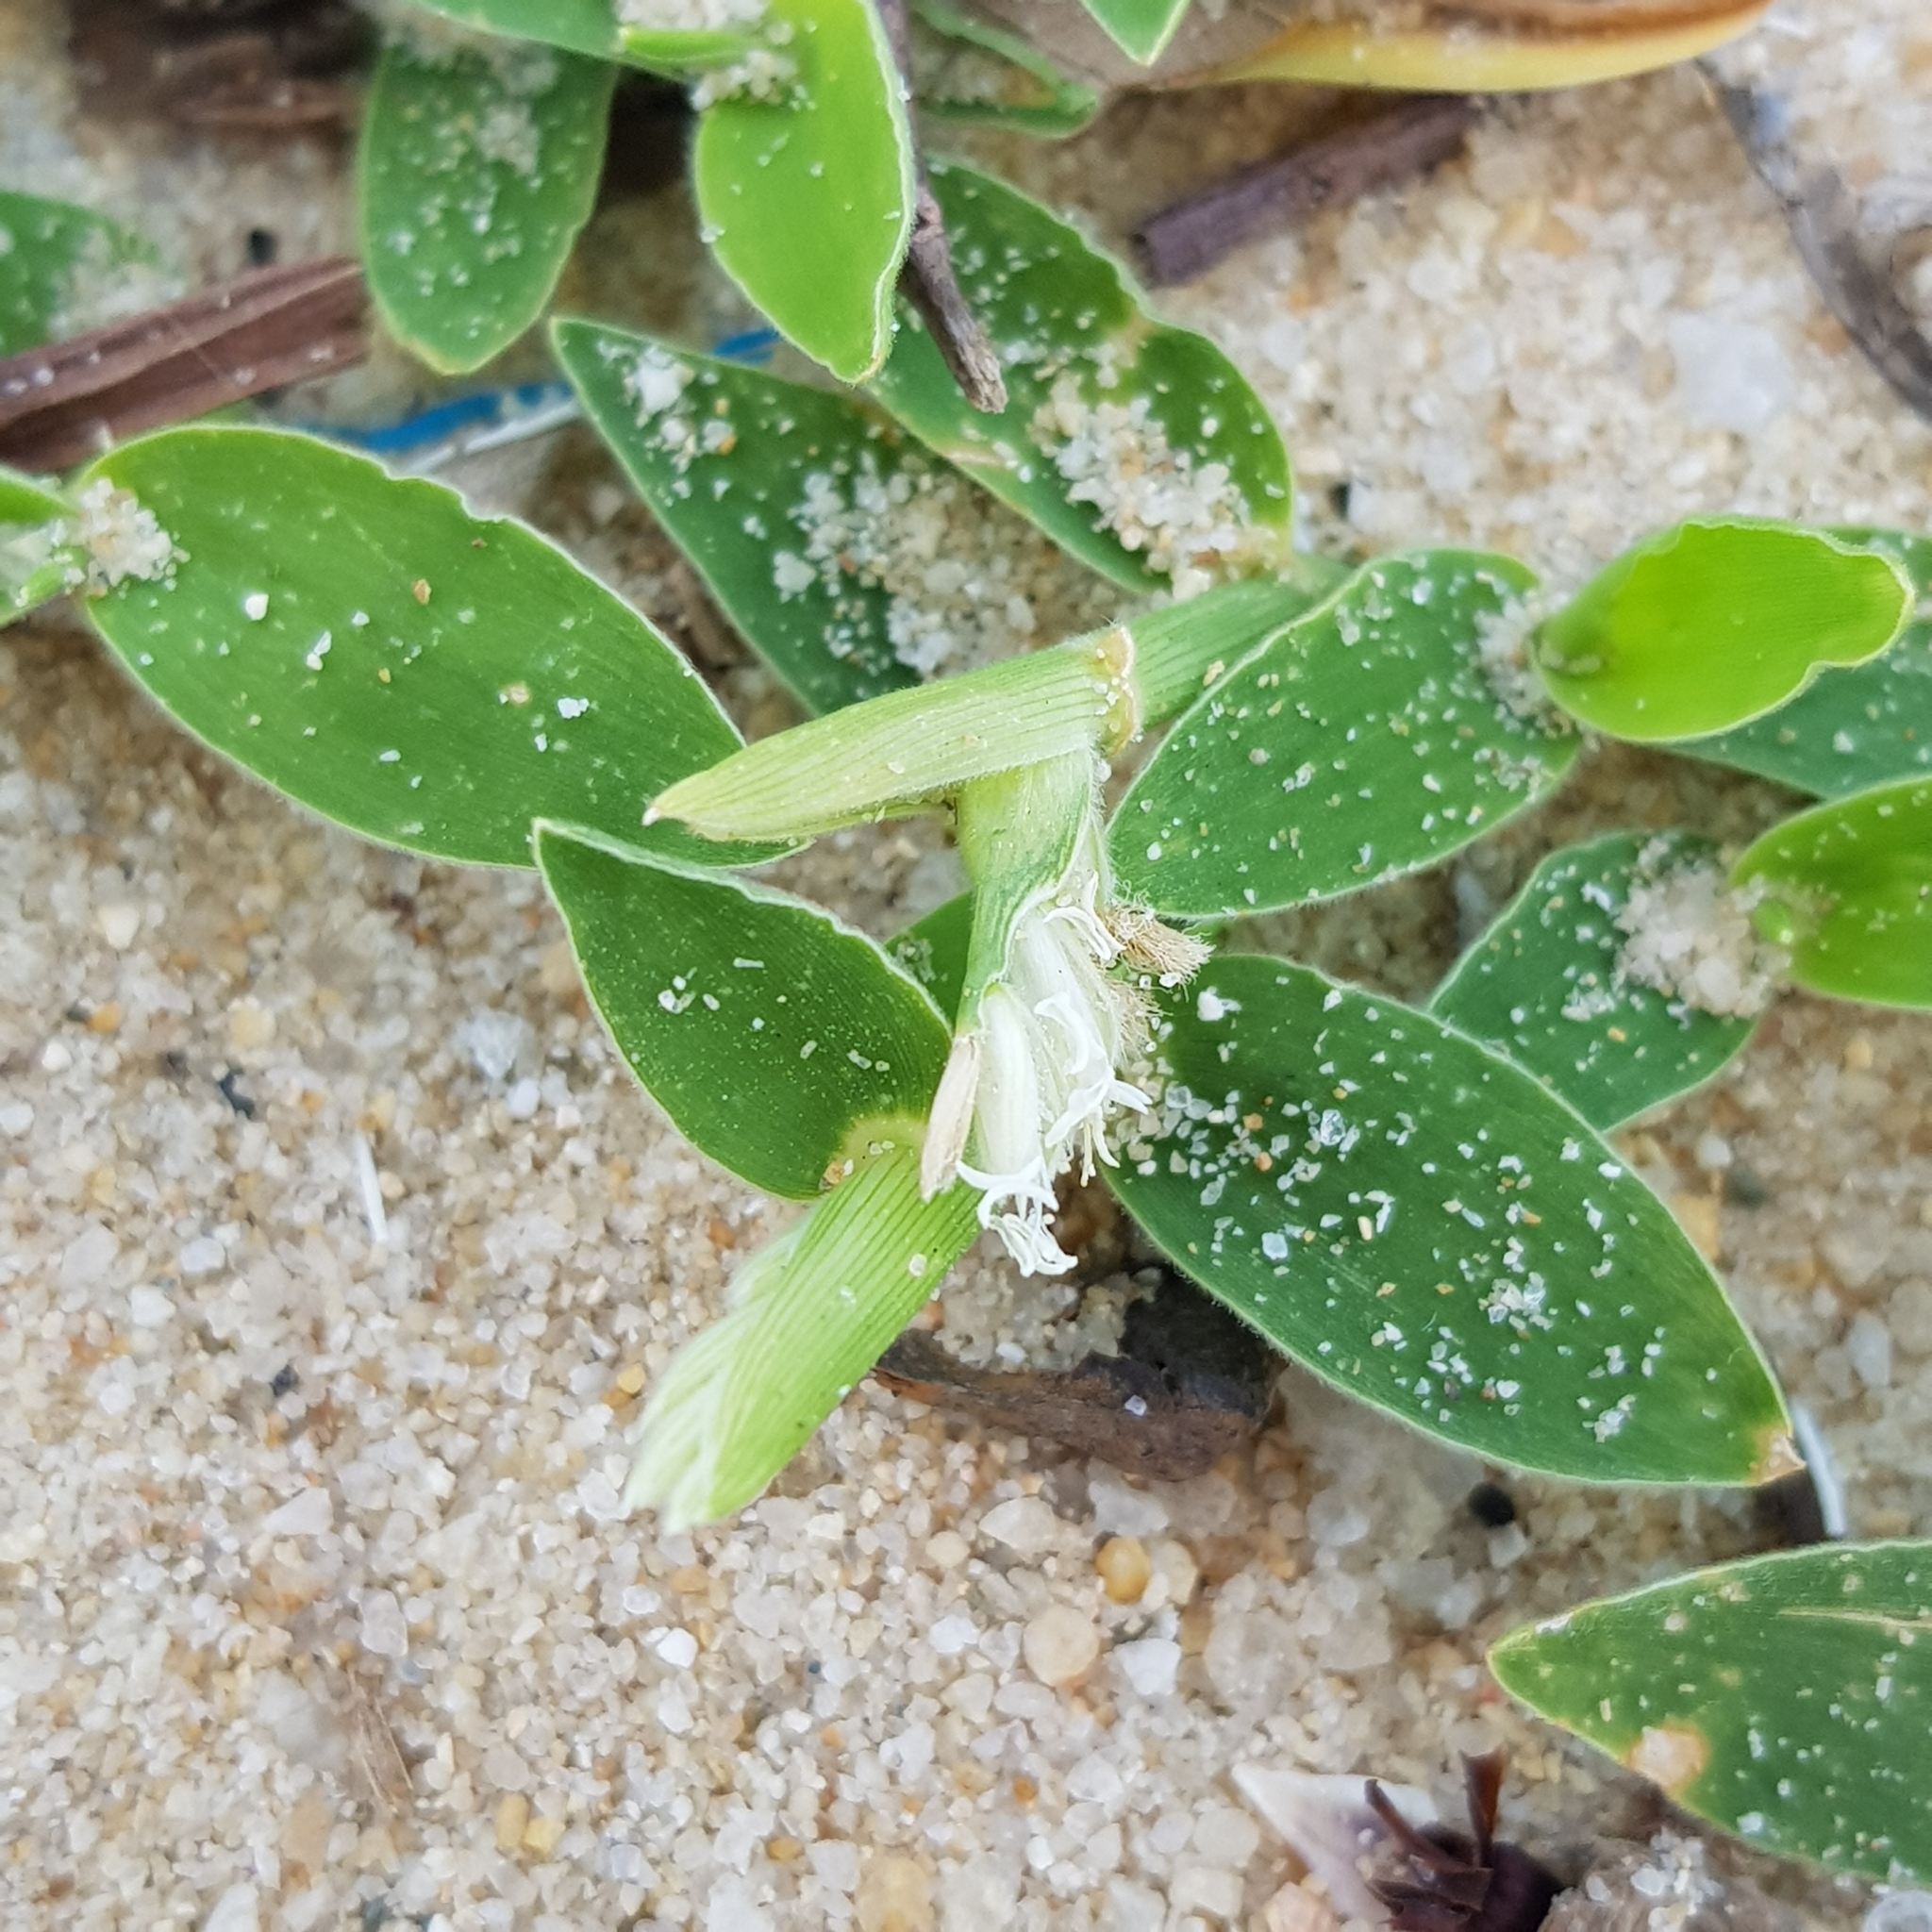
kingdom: Plantae
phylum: Tracheophyta
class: Liliopsida
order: Poales
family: Poaceae
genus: Thuarea
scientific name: Thuarea involuta
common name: Tropical beach grass
